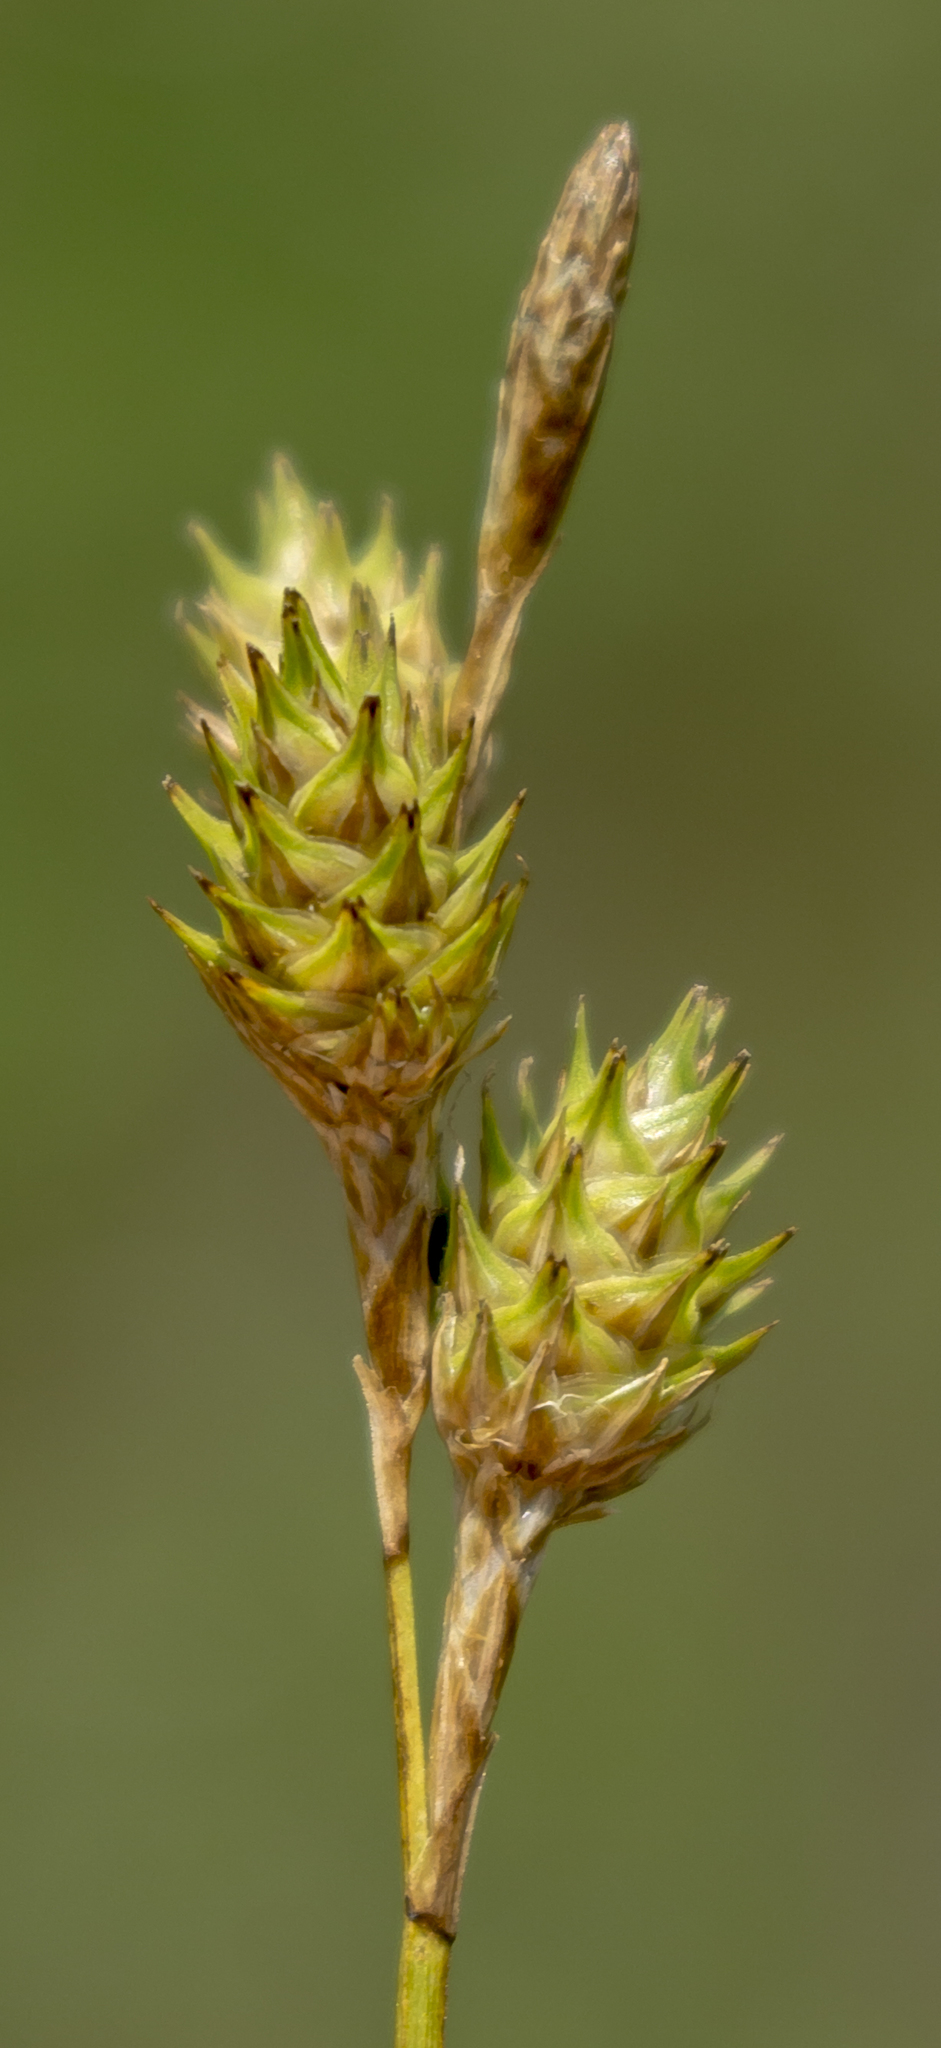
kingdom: Plantae
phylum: Tracheophyta
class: Liliopsida
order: Poales
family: Cyperaceae
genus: Carex
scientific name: Carex bicknellii
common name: Bicknell's sedge
